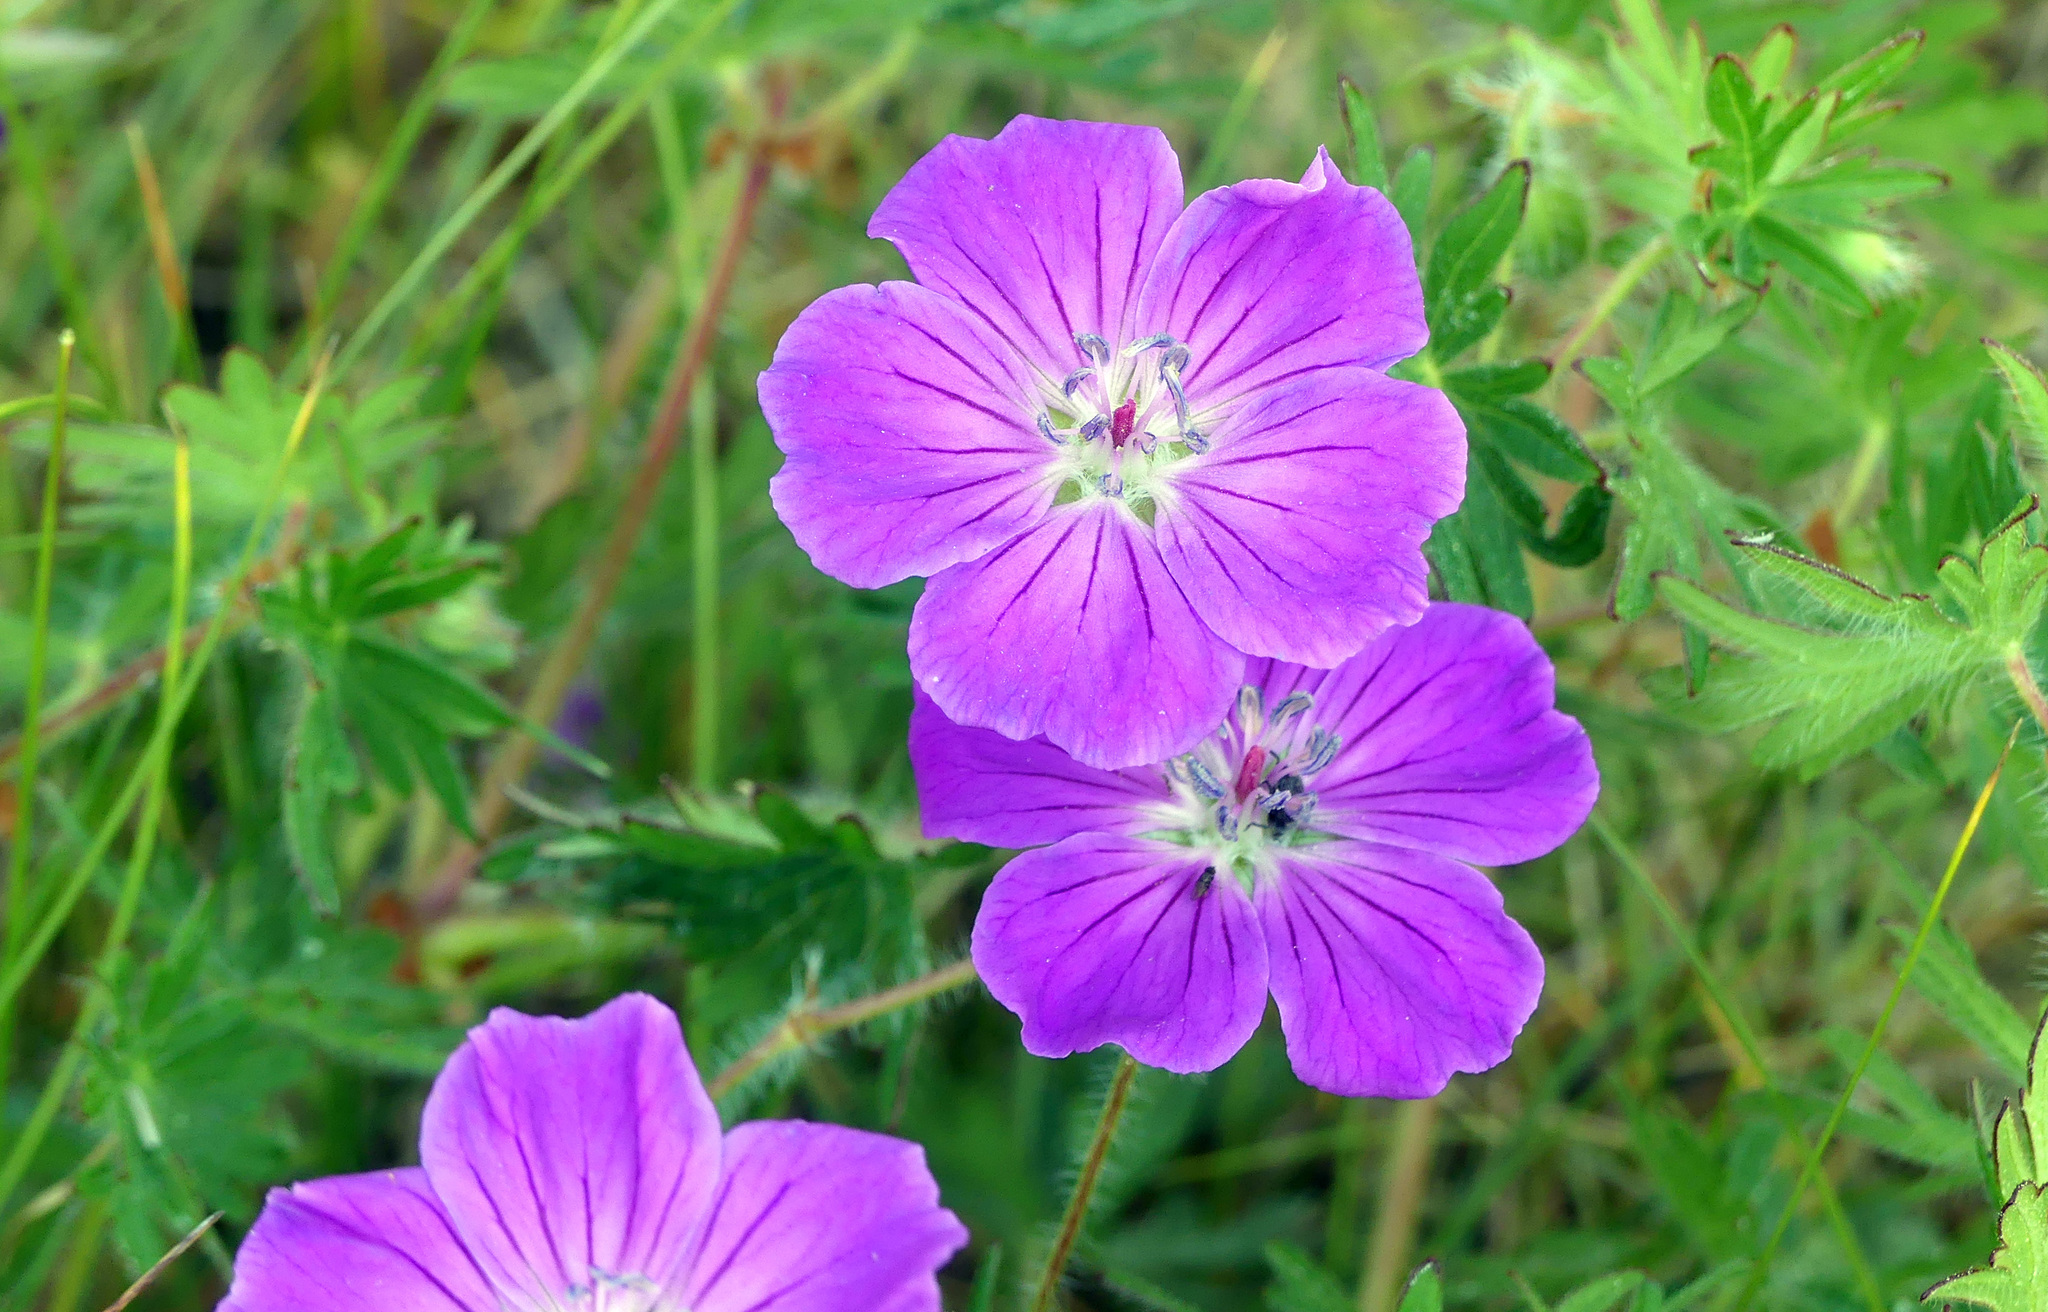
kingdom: Plantae
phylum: Tracheophyta
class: Magnoliopsida
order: Geraniales
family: Geraniaceae
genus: Geranium
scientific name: Geranium sanguineum
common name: Bloody crane's-bill
